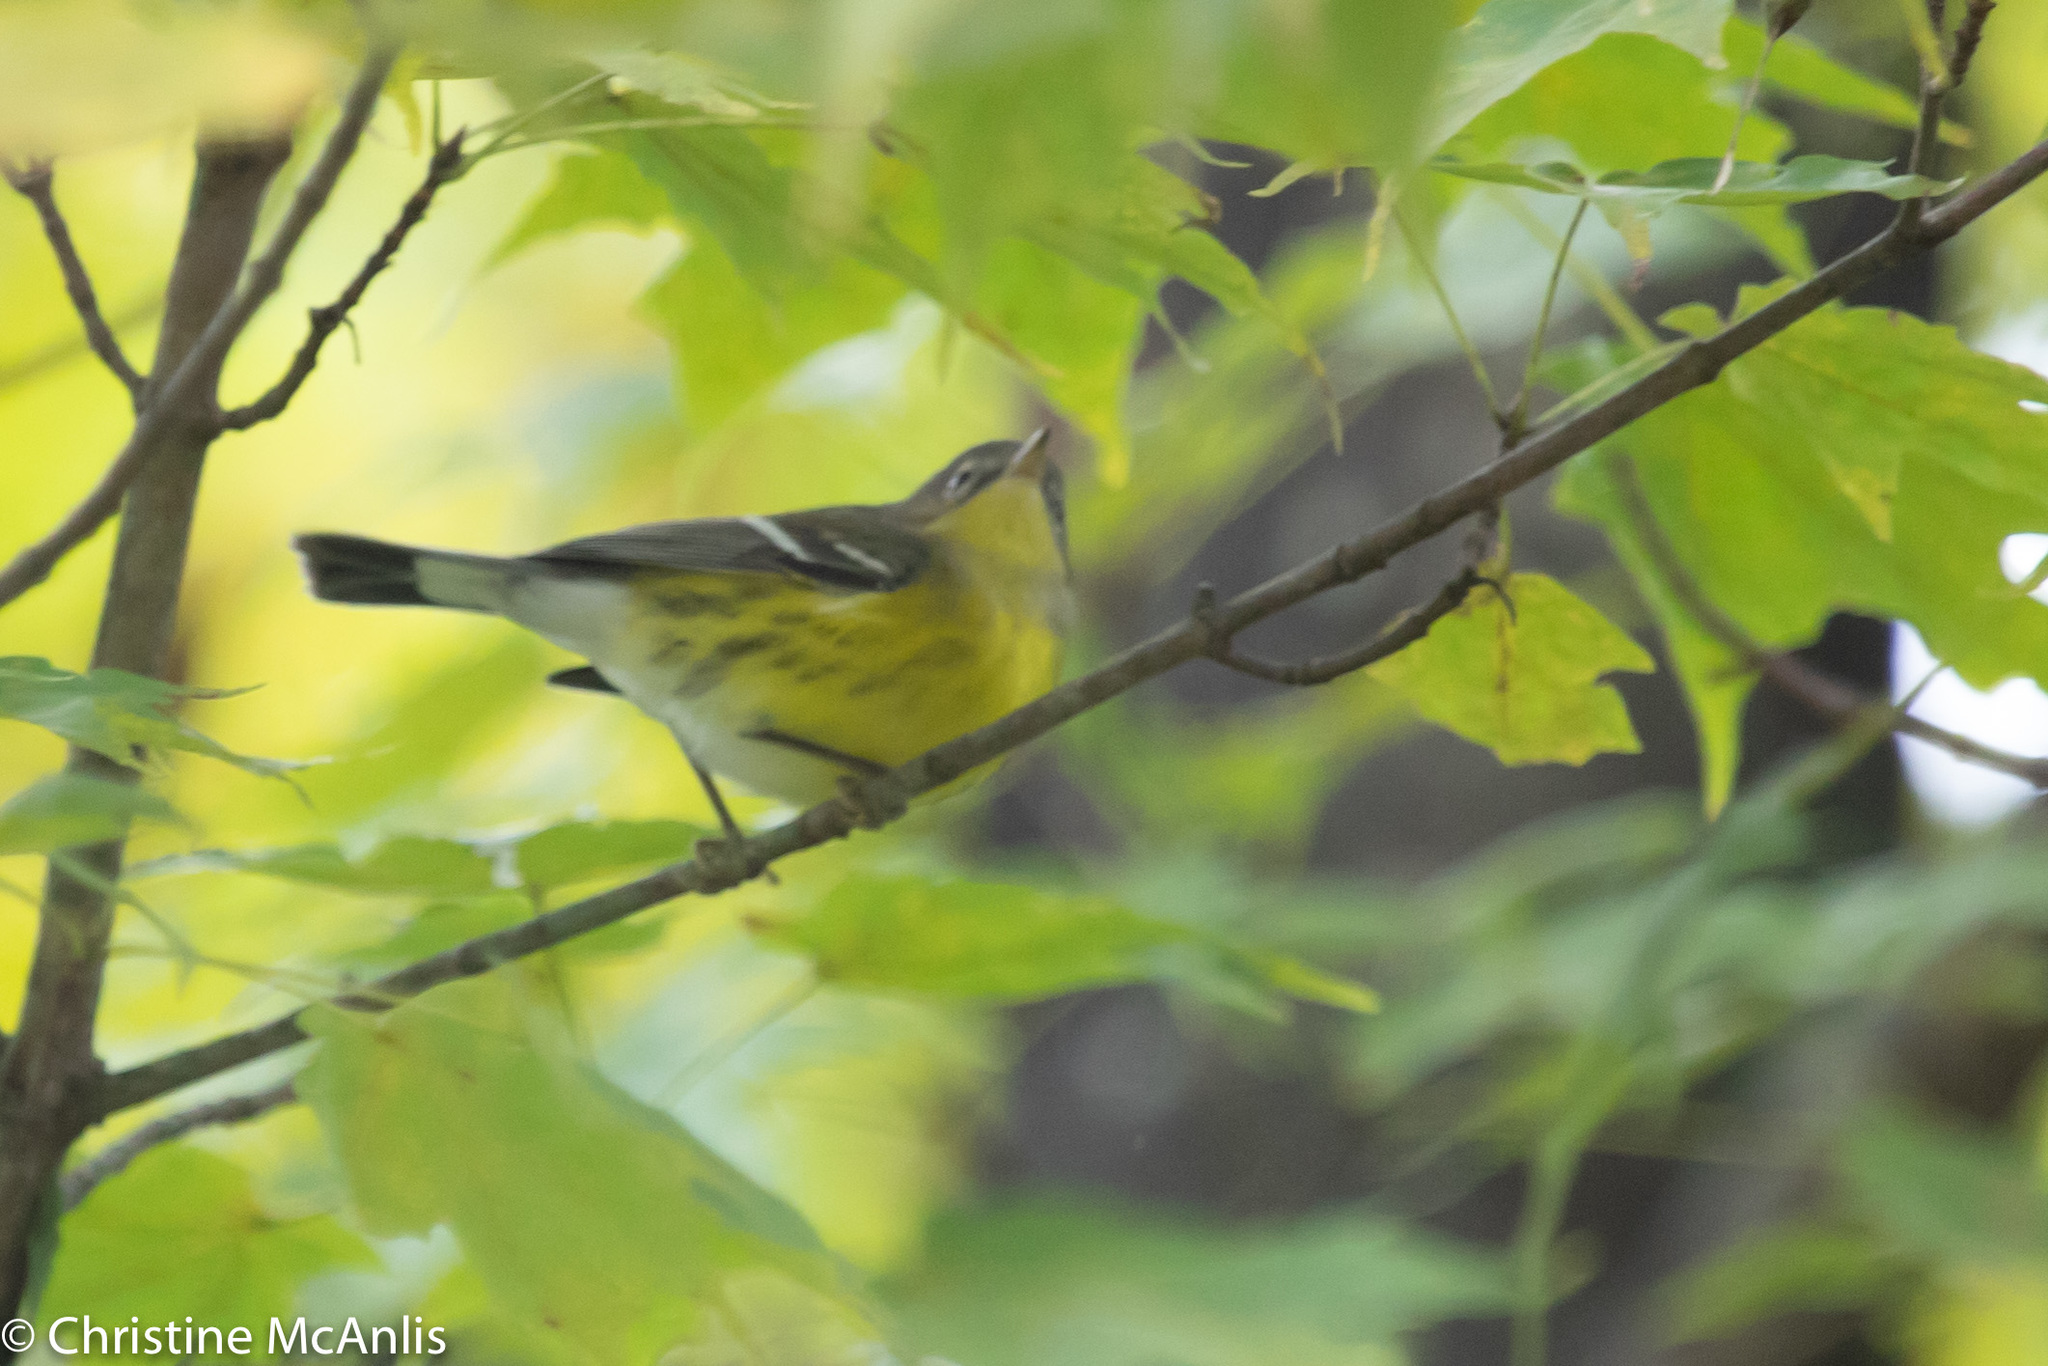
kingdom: Animalia
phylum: Chordata
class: Aves
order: Passeriformes
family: Parulidae
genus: Setophaga
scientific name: Setophaga magnolia
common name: Magnolia warbler
